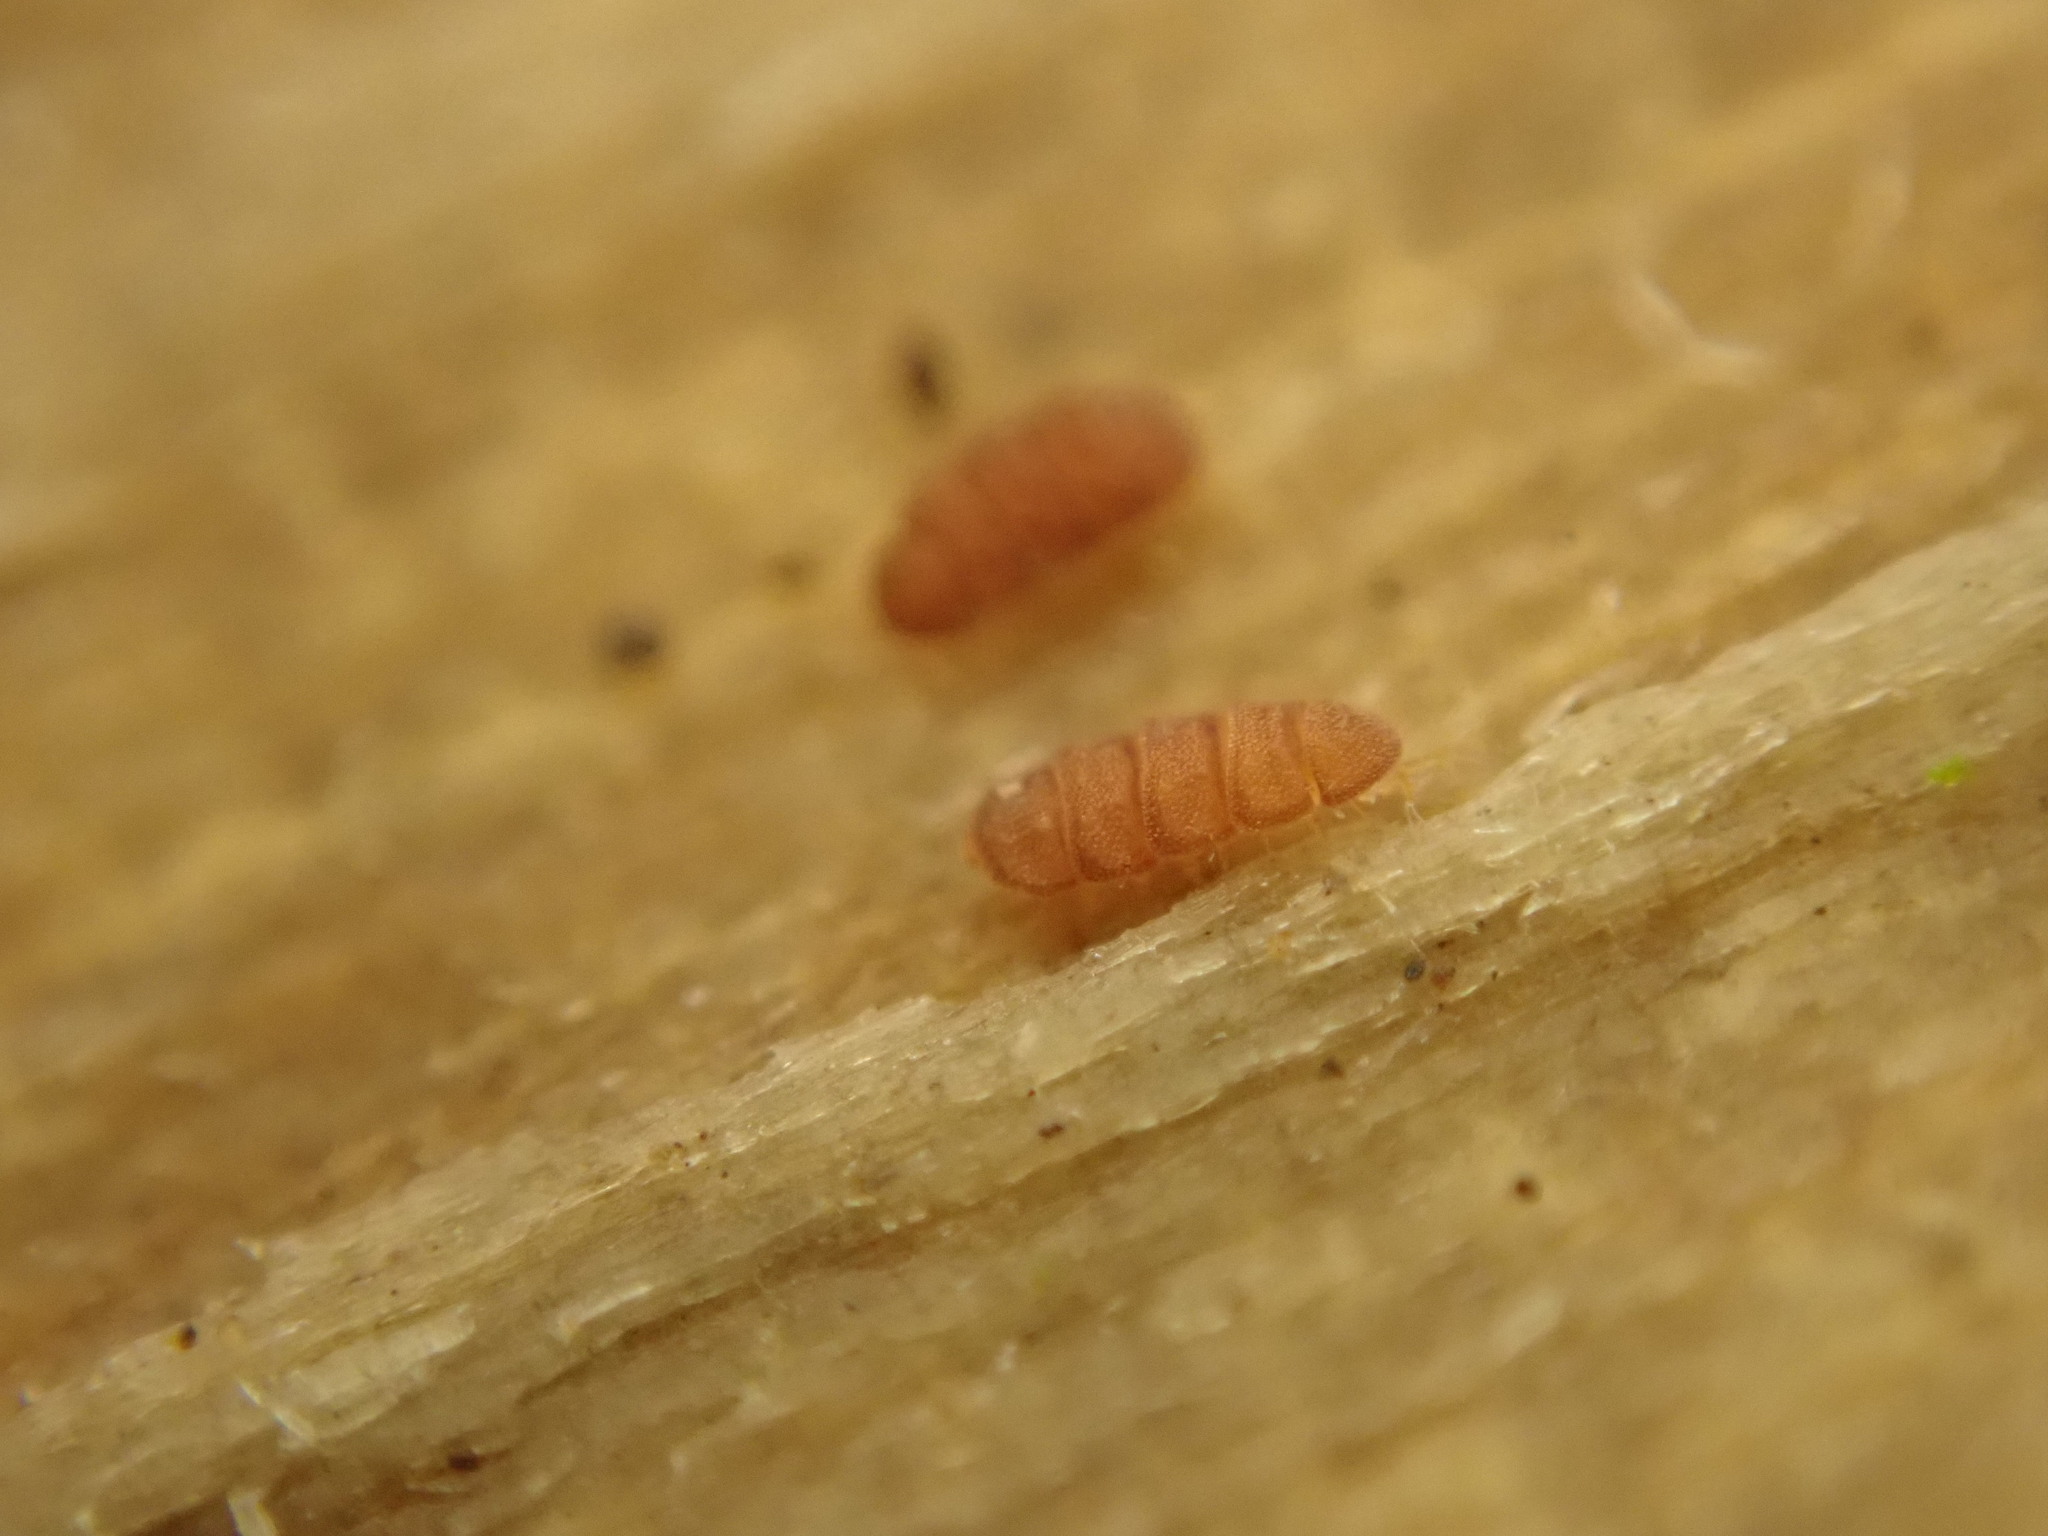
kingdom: Animalia
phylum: Arthropoda
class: Pauropoda
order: Tetramerocerata
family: Eurypauropodidae
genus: Eurypauropus
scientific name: Eurypauropus
